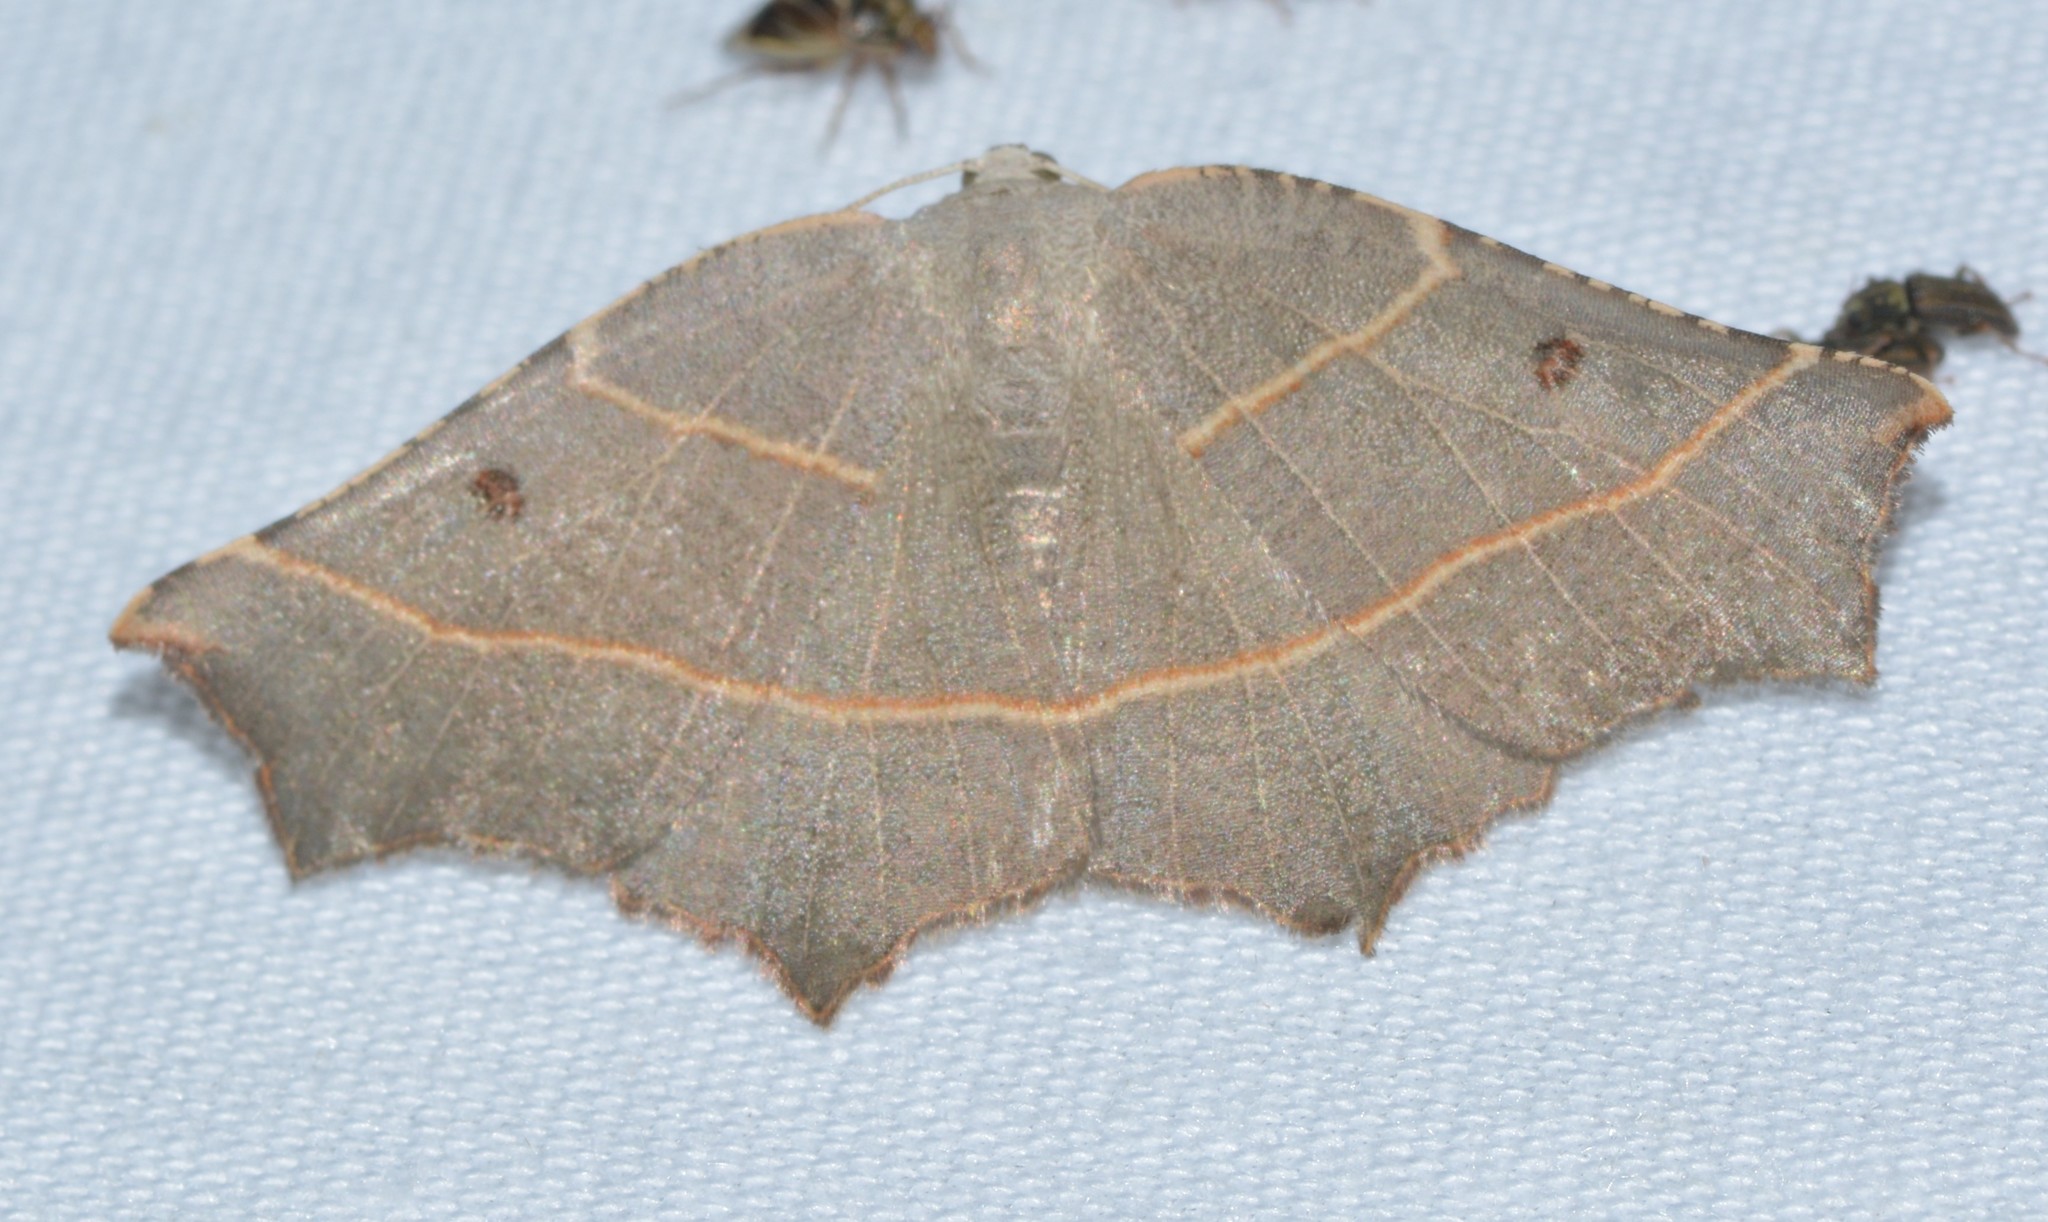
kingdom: Animalia
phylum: Arthropoda
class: Insecta
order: Lepidoptera
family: Geometridae
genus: Metanema
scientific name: Metanema inatomaria
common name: Pale metanema
